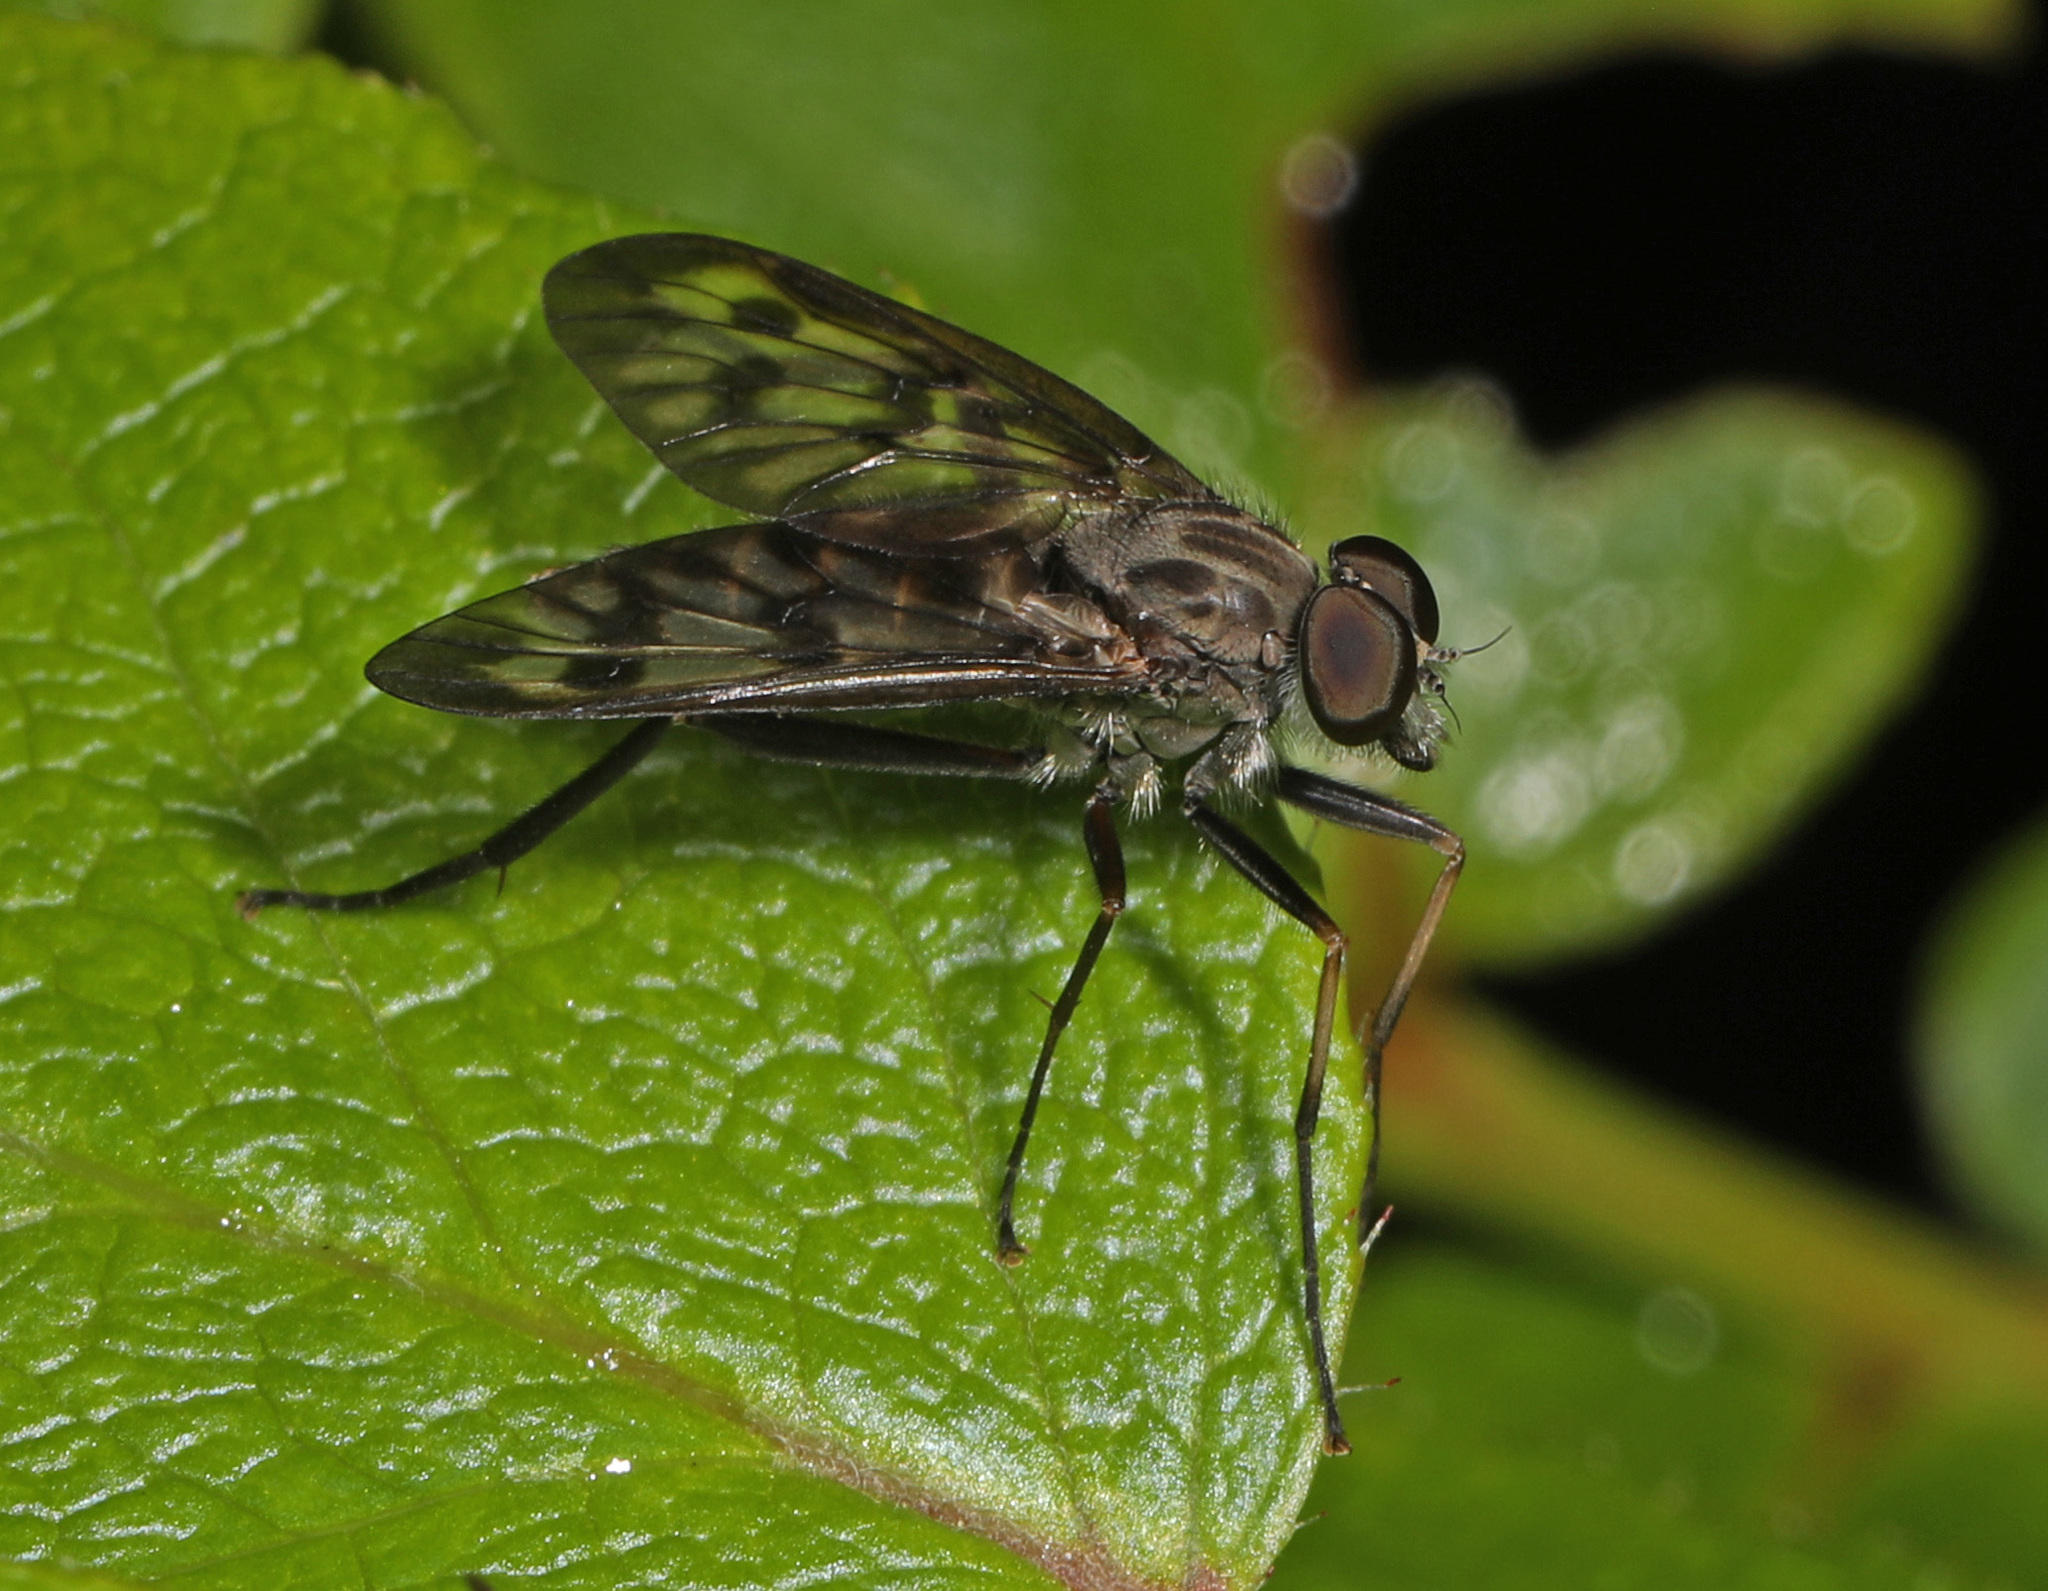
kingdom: Animalia
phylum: Arthropoda
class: Insecta
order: Diptera
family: Rhagionidae
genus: Rhagio
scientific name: Rhagio mystaceus
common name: Common snipe fly
